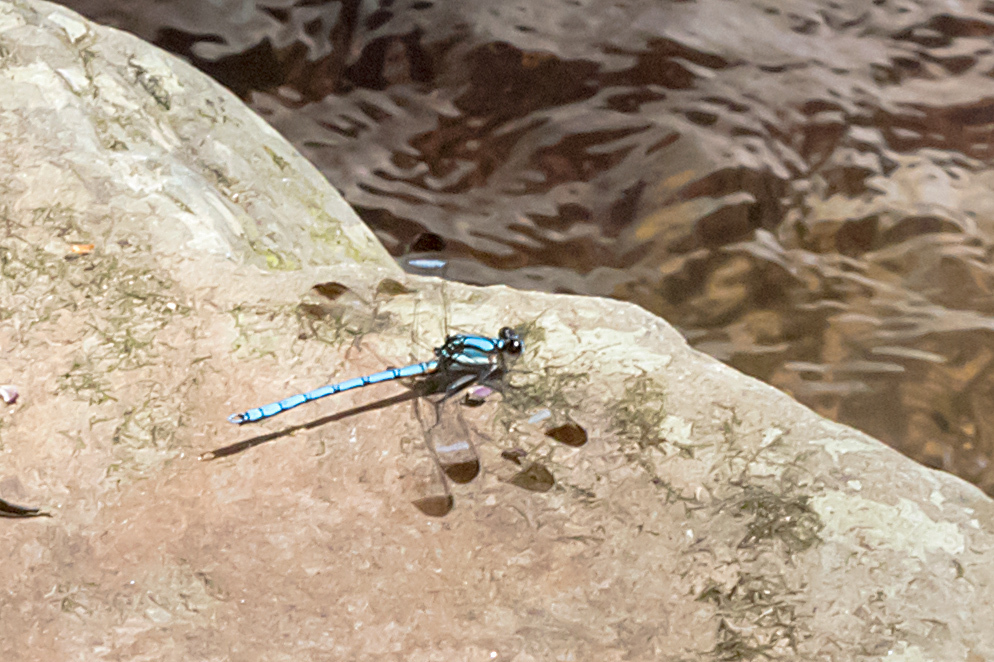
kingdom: Animalia
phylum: Arthropoda
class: Insecta
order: Odonata
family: Lestoideidae
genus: Diphlebia
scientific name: Diphlebia lestoides
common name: Whitewater rockmaster
